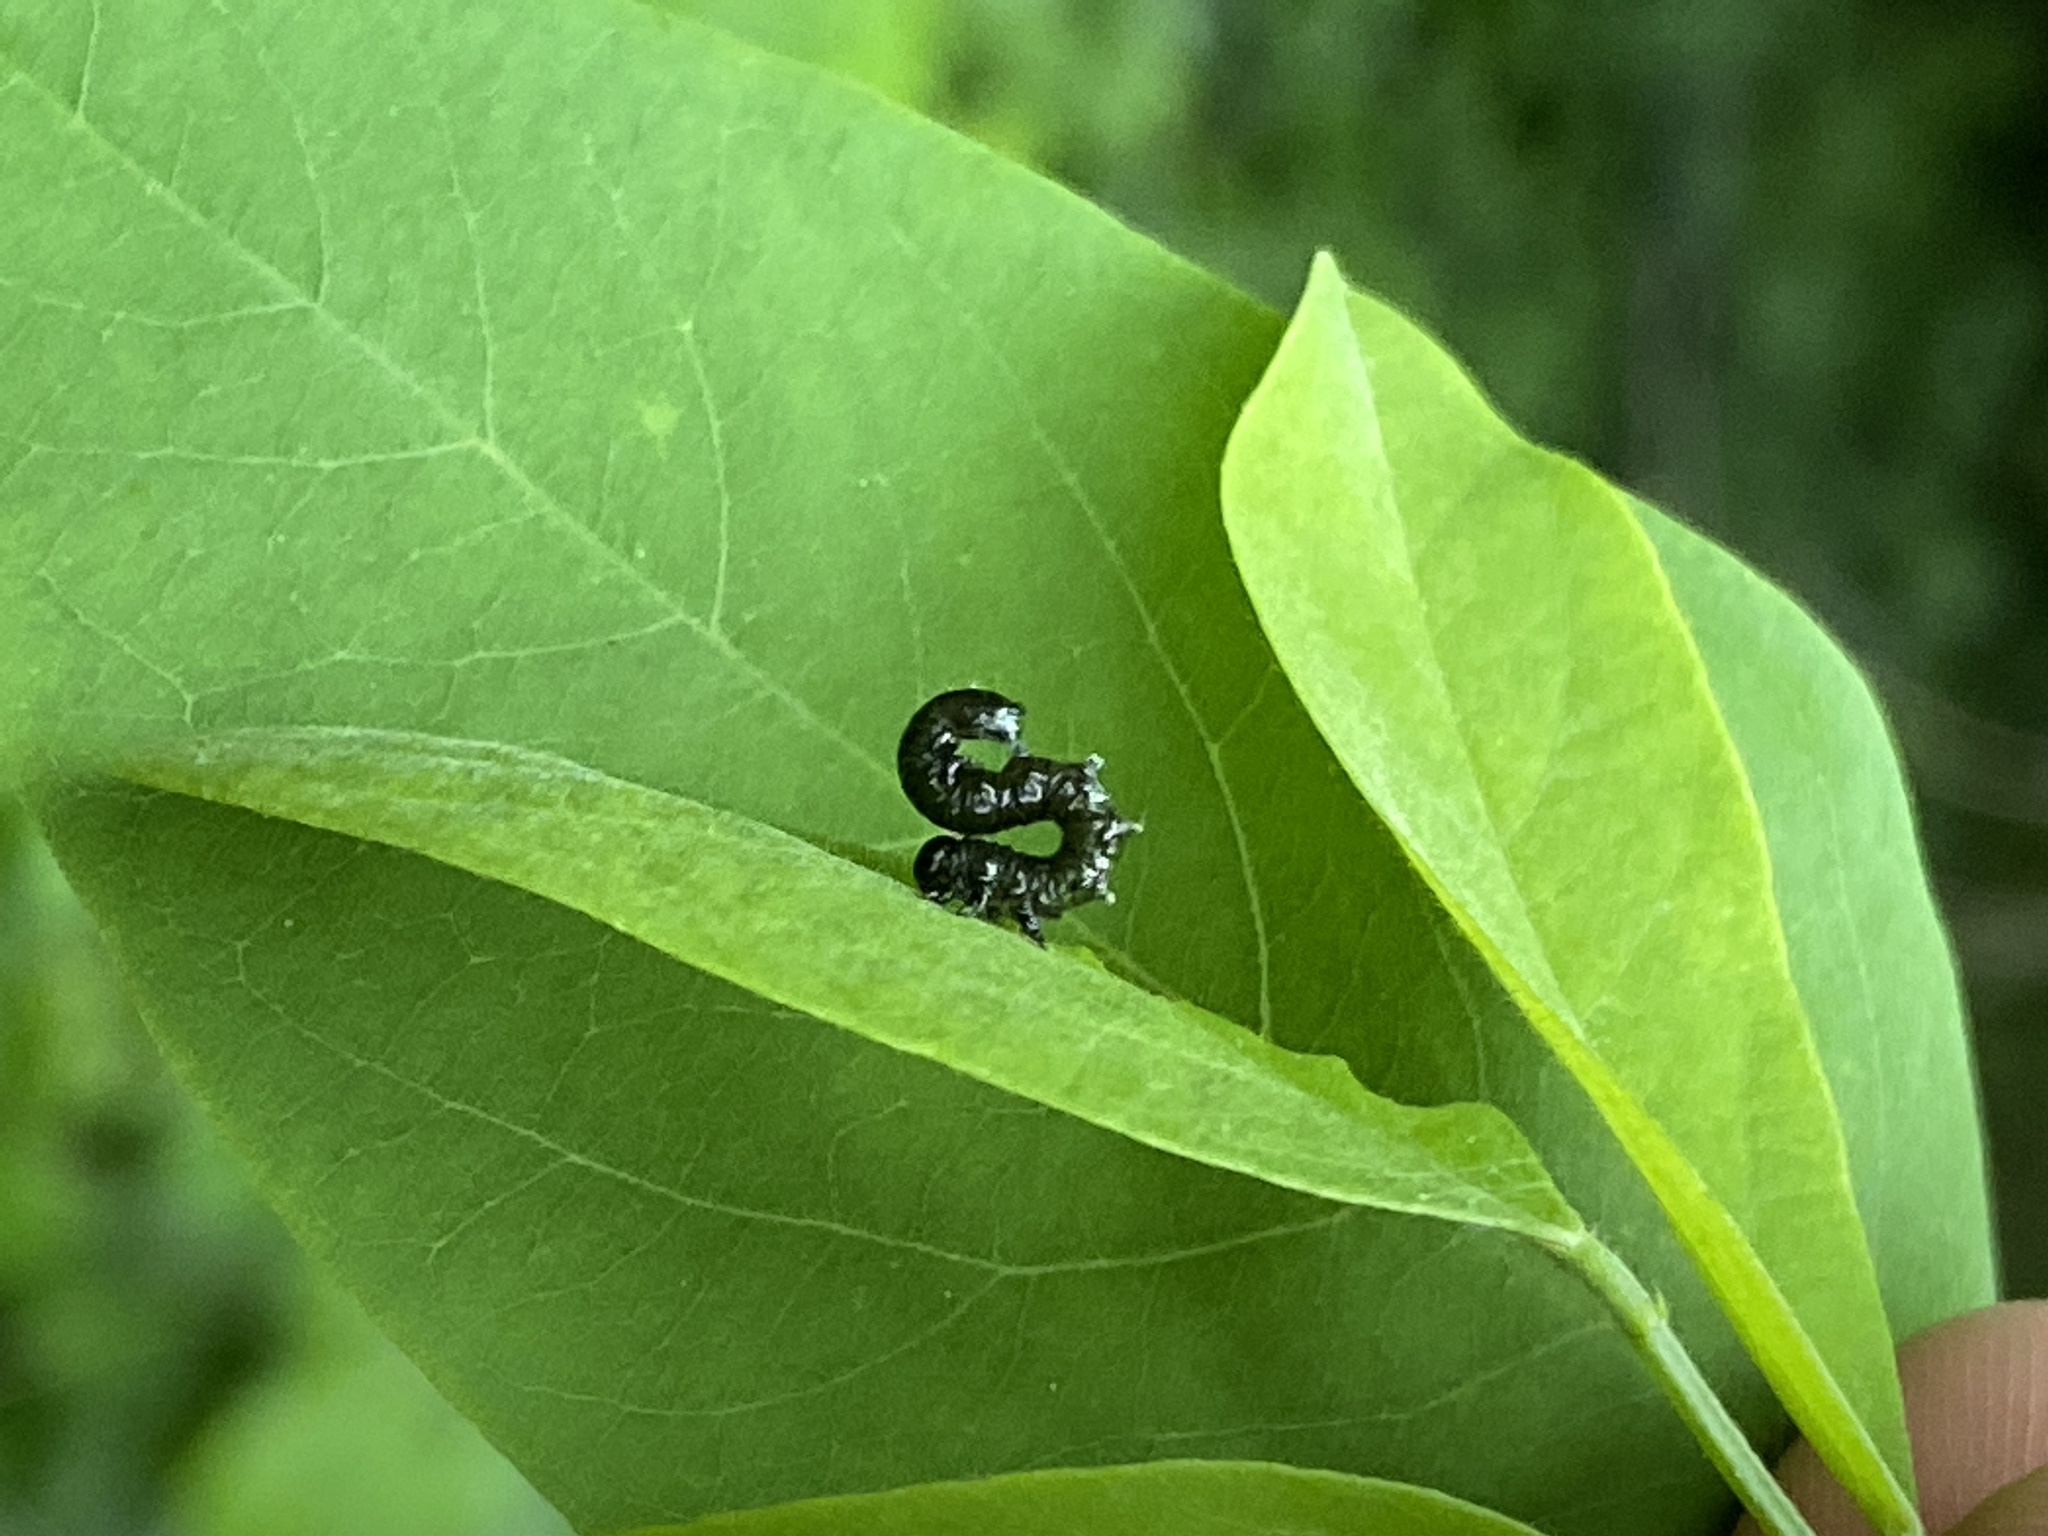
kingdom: Animalia
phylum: Arthropoda
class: Insecta
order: Hymenoptera
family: Tenthredinidae
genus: Nematus
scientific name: Nematus abbotii
